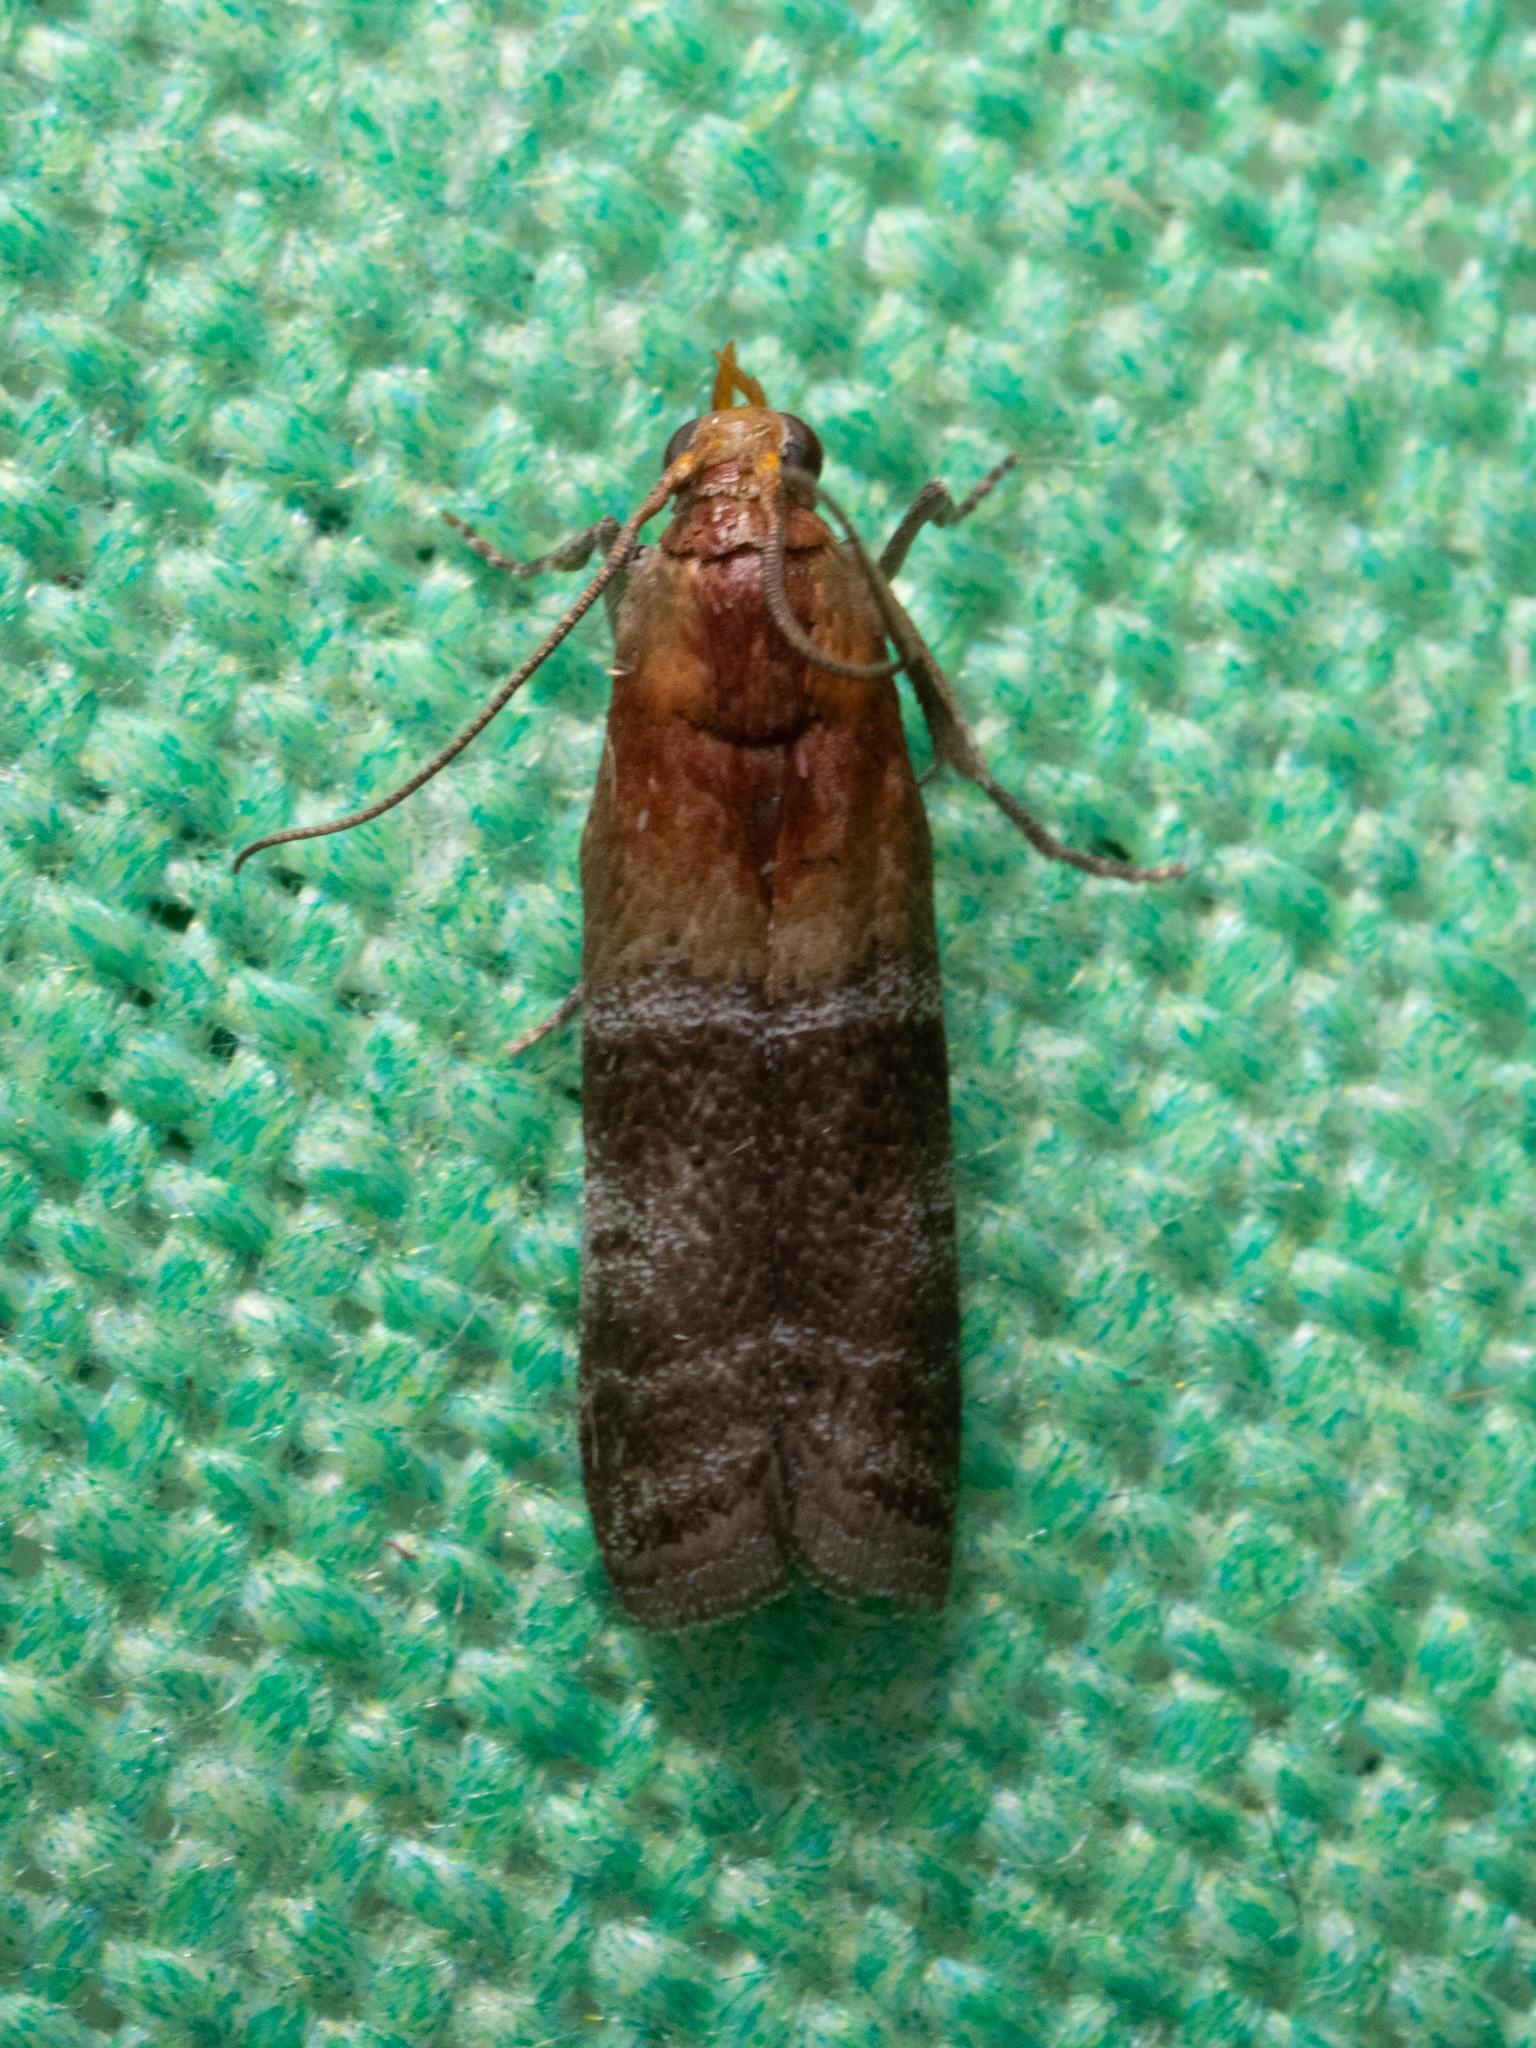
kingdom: Animalia
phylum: Arthropoda
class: Insecta
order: Lepidoptera
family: Pyralidae
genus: Moodna
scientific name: Moodna pallidostrinella
